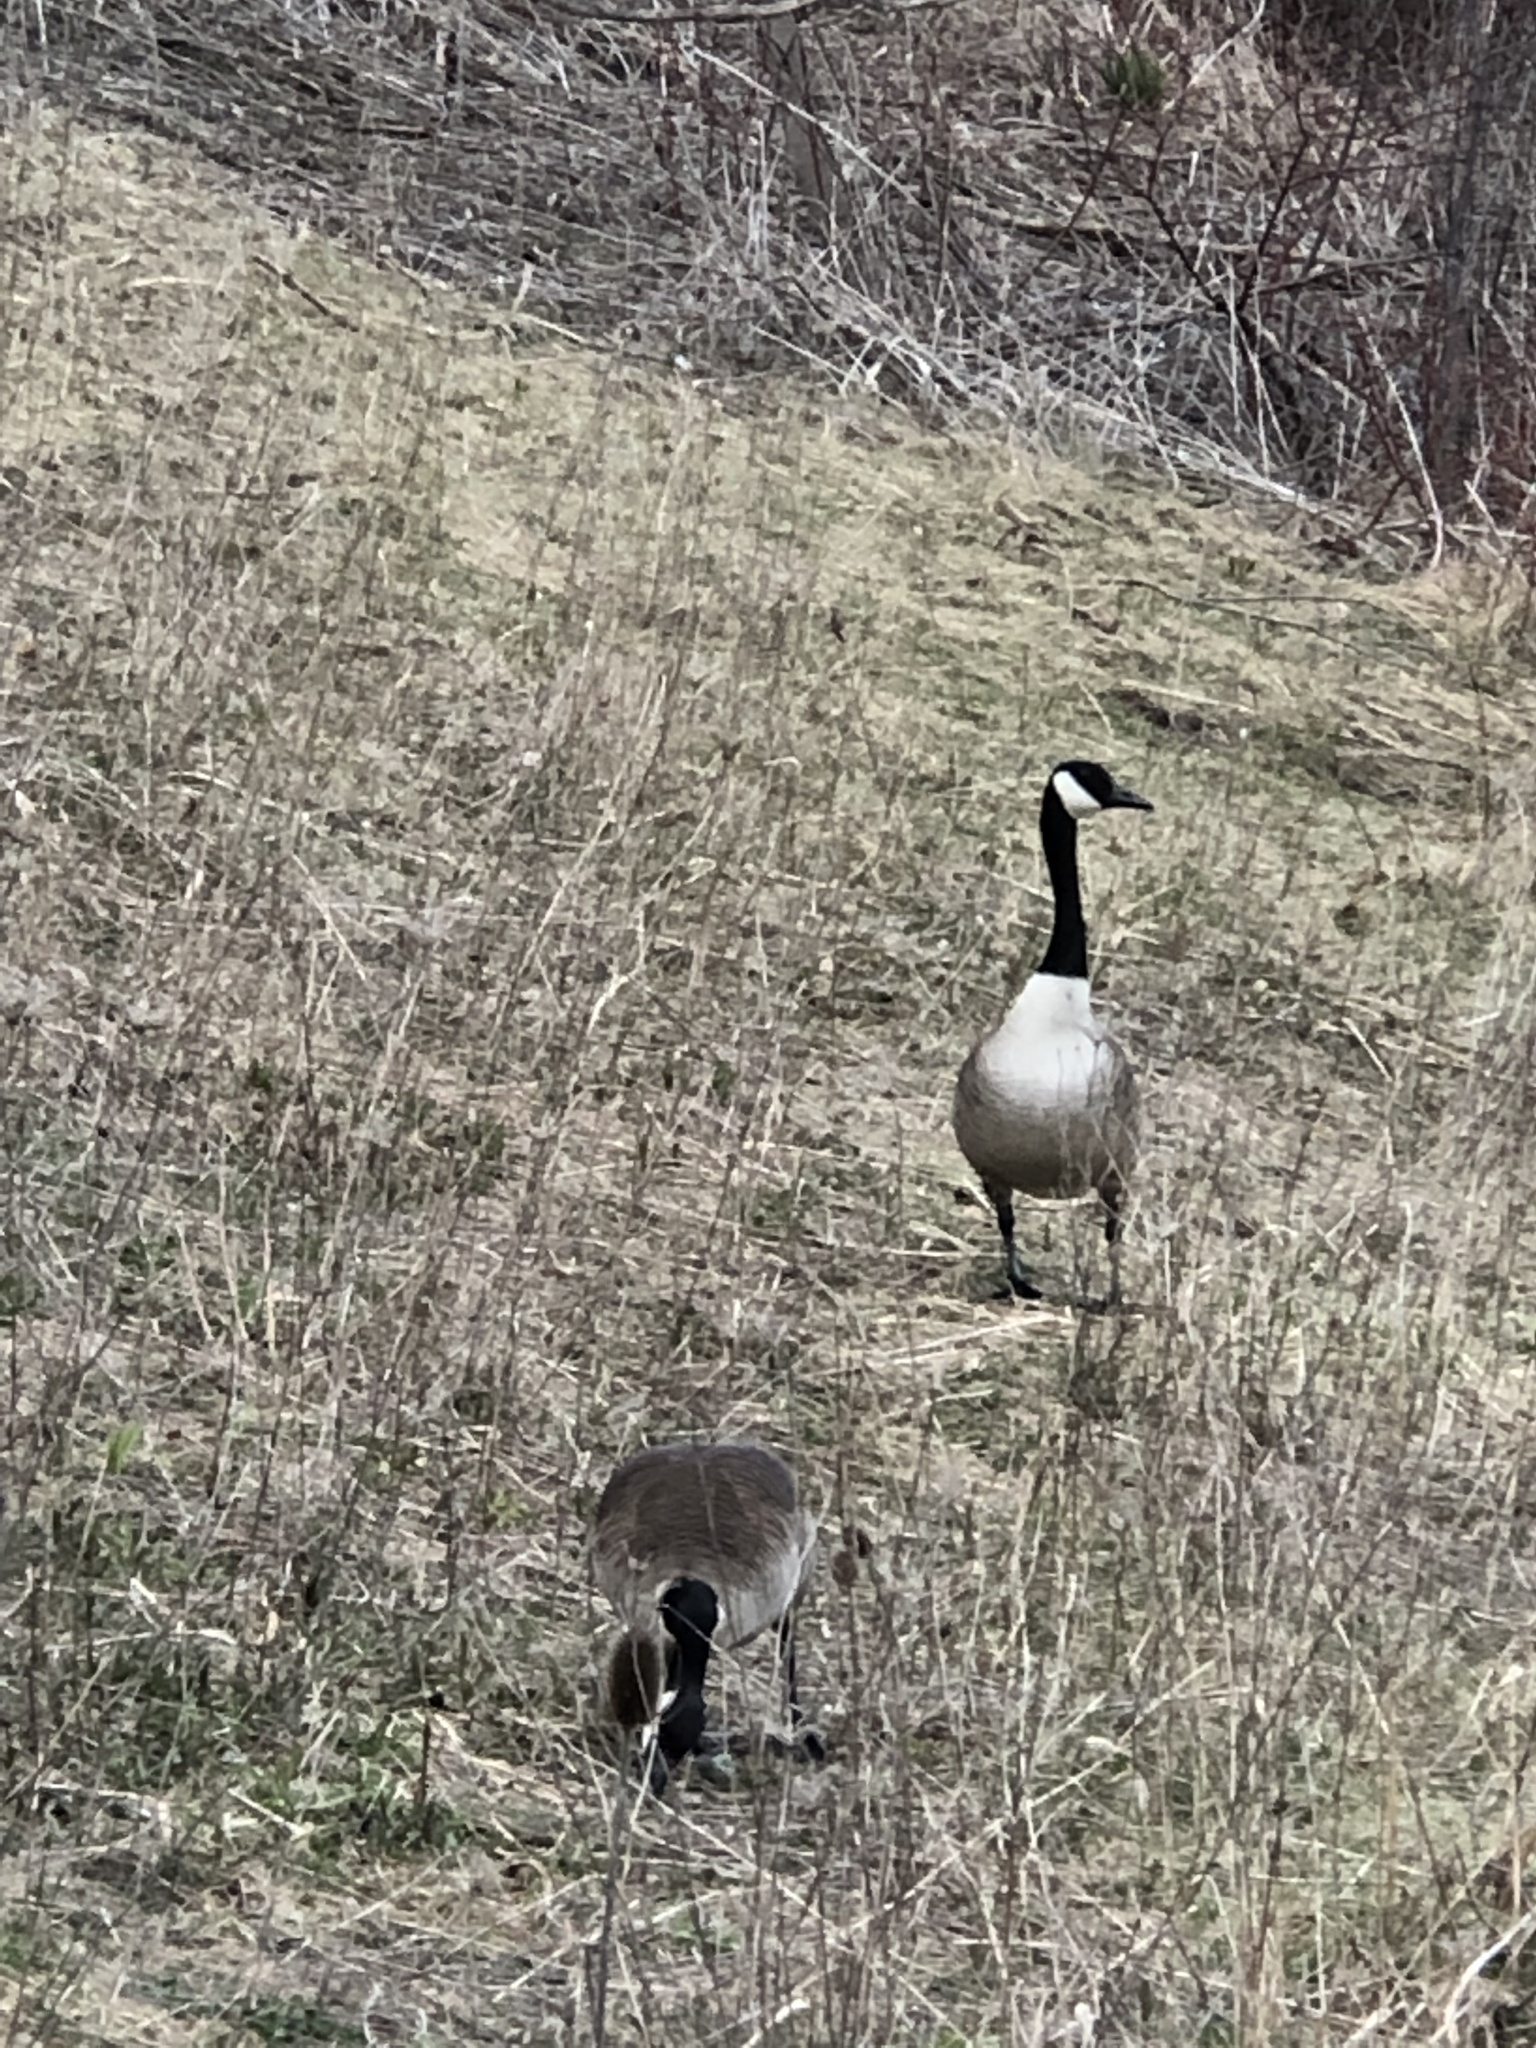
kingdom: Animalia
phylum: Chordata
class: Aves
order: Anseriformes
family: Anatidae
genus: Branta
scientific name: Branta canadensis
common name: Canada goose
